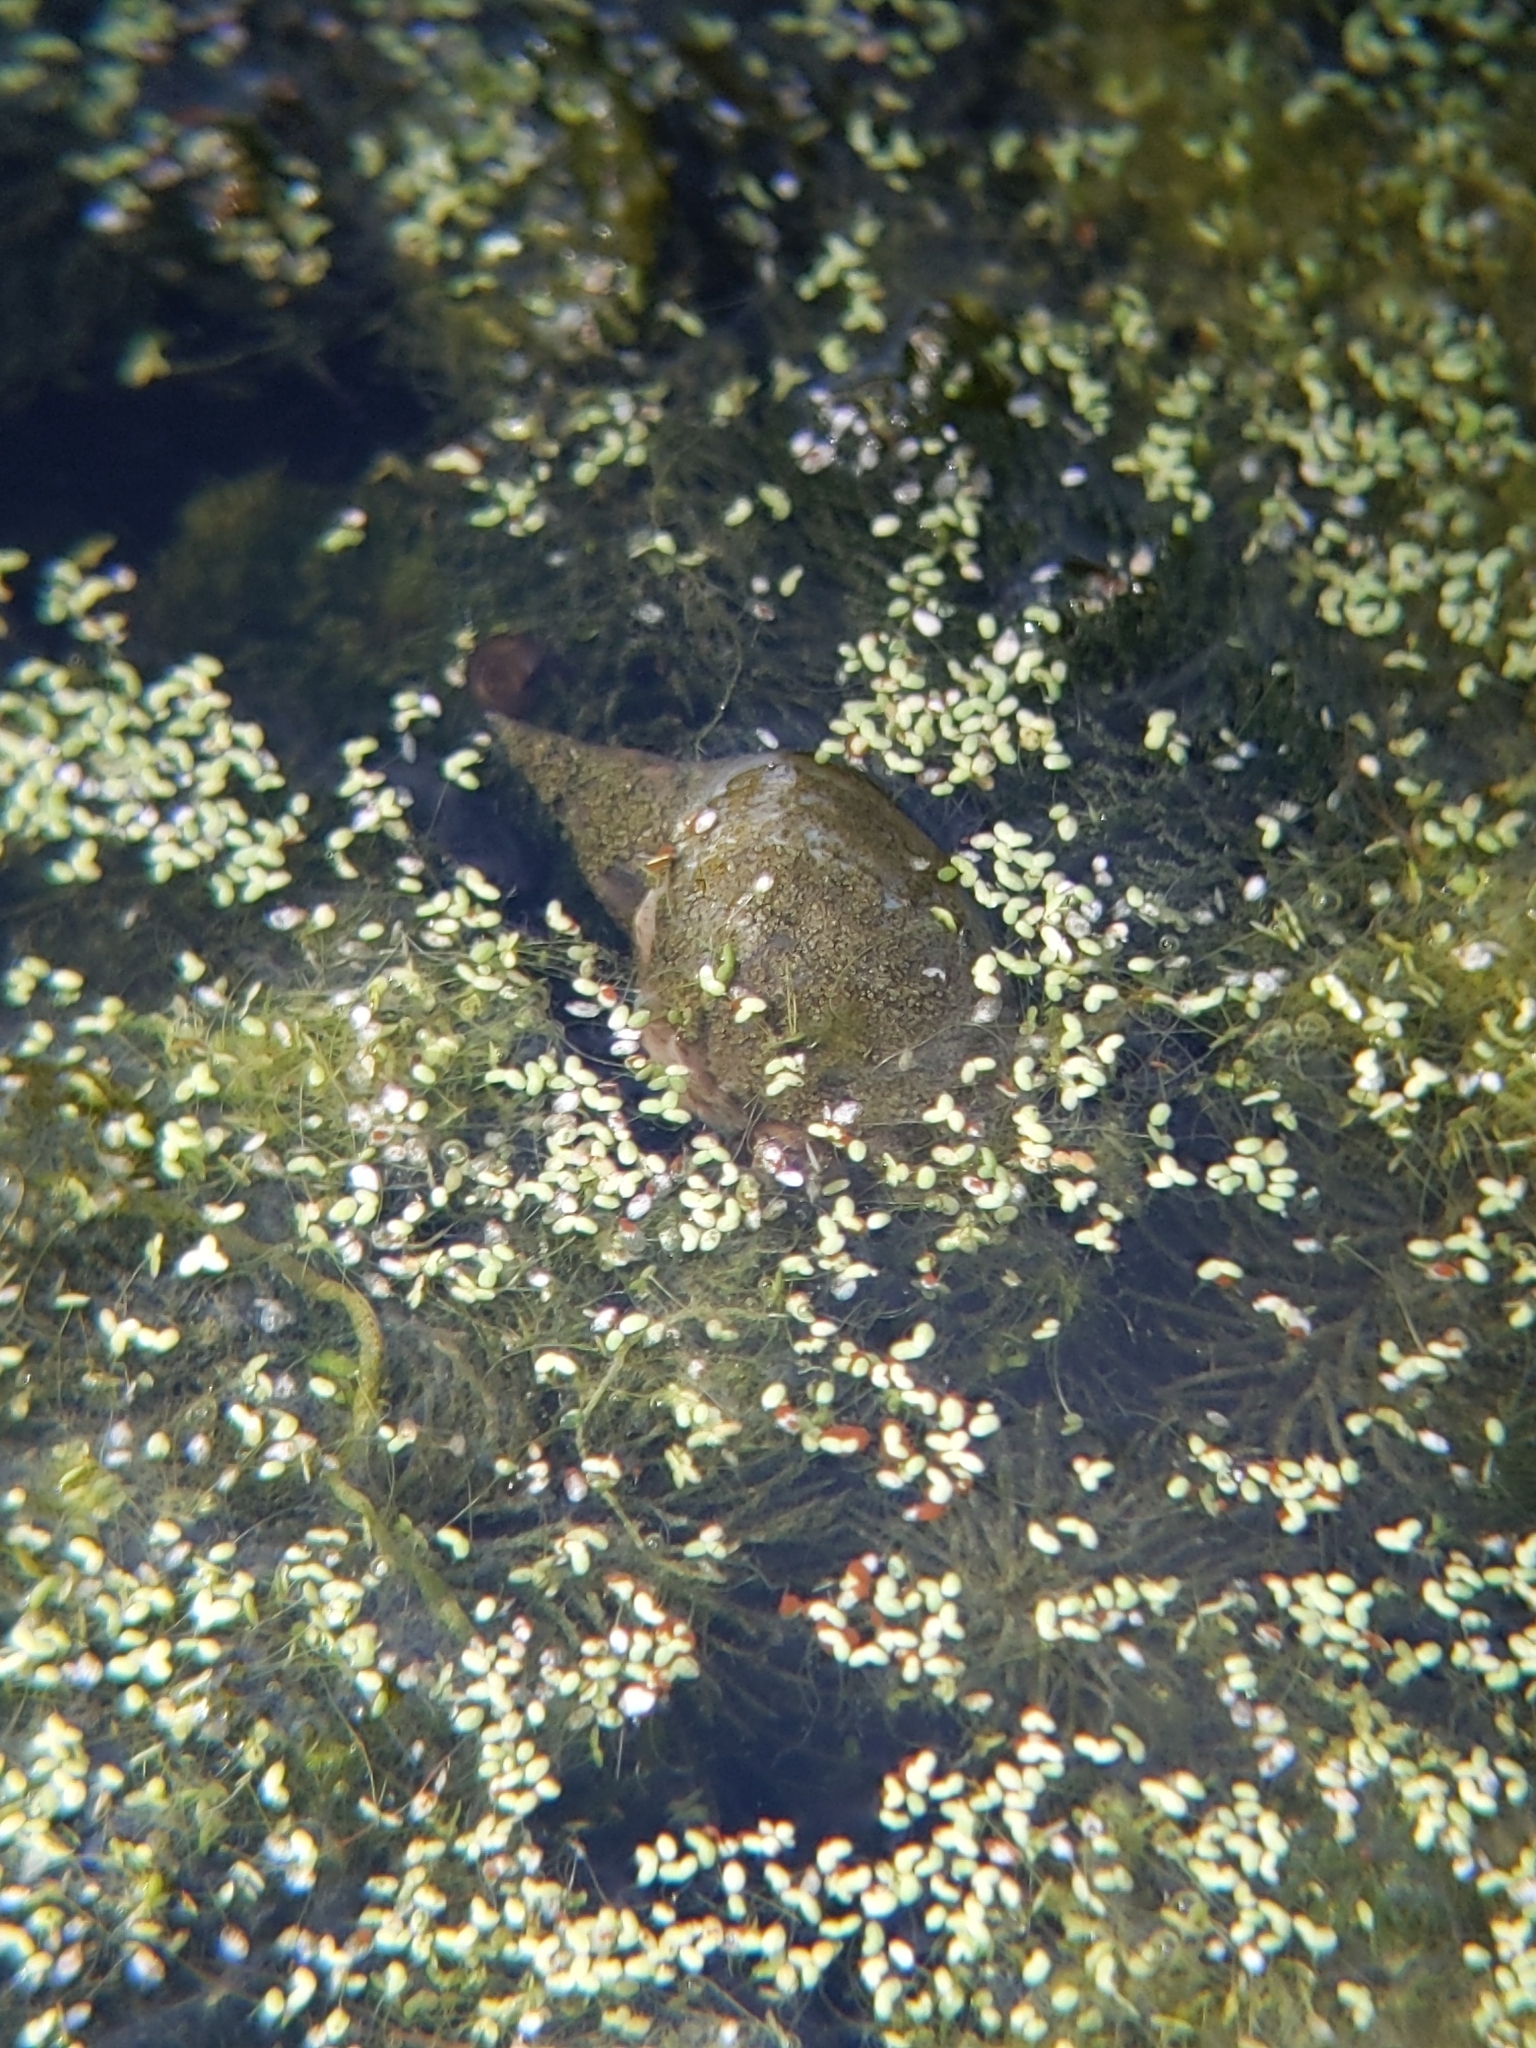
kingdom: Animalia
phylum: Mollusca
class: Gastropoda
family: Lymnaeidae
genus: Lymnaea
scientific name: Lymnaea stagnalis
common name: Great pond snail
